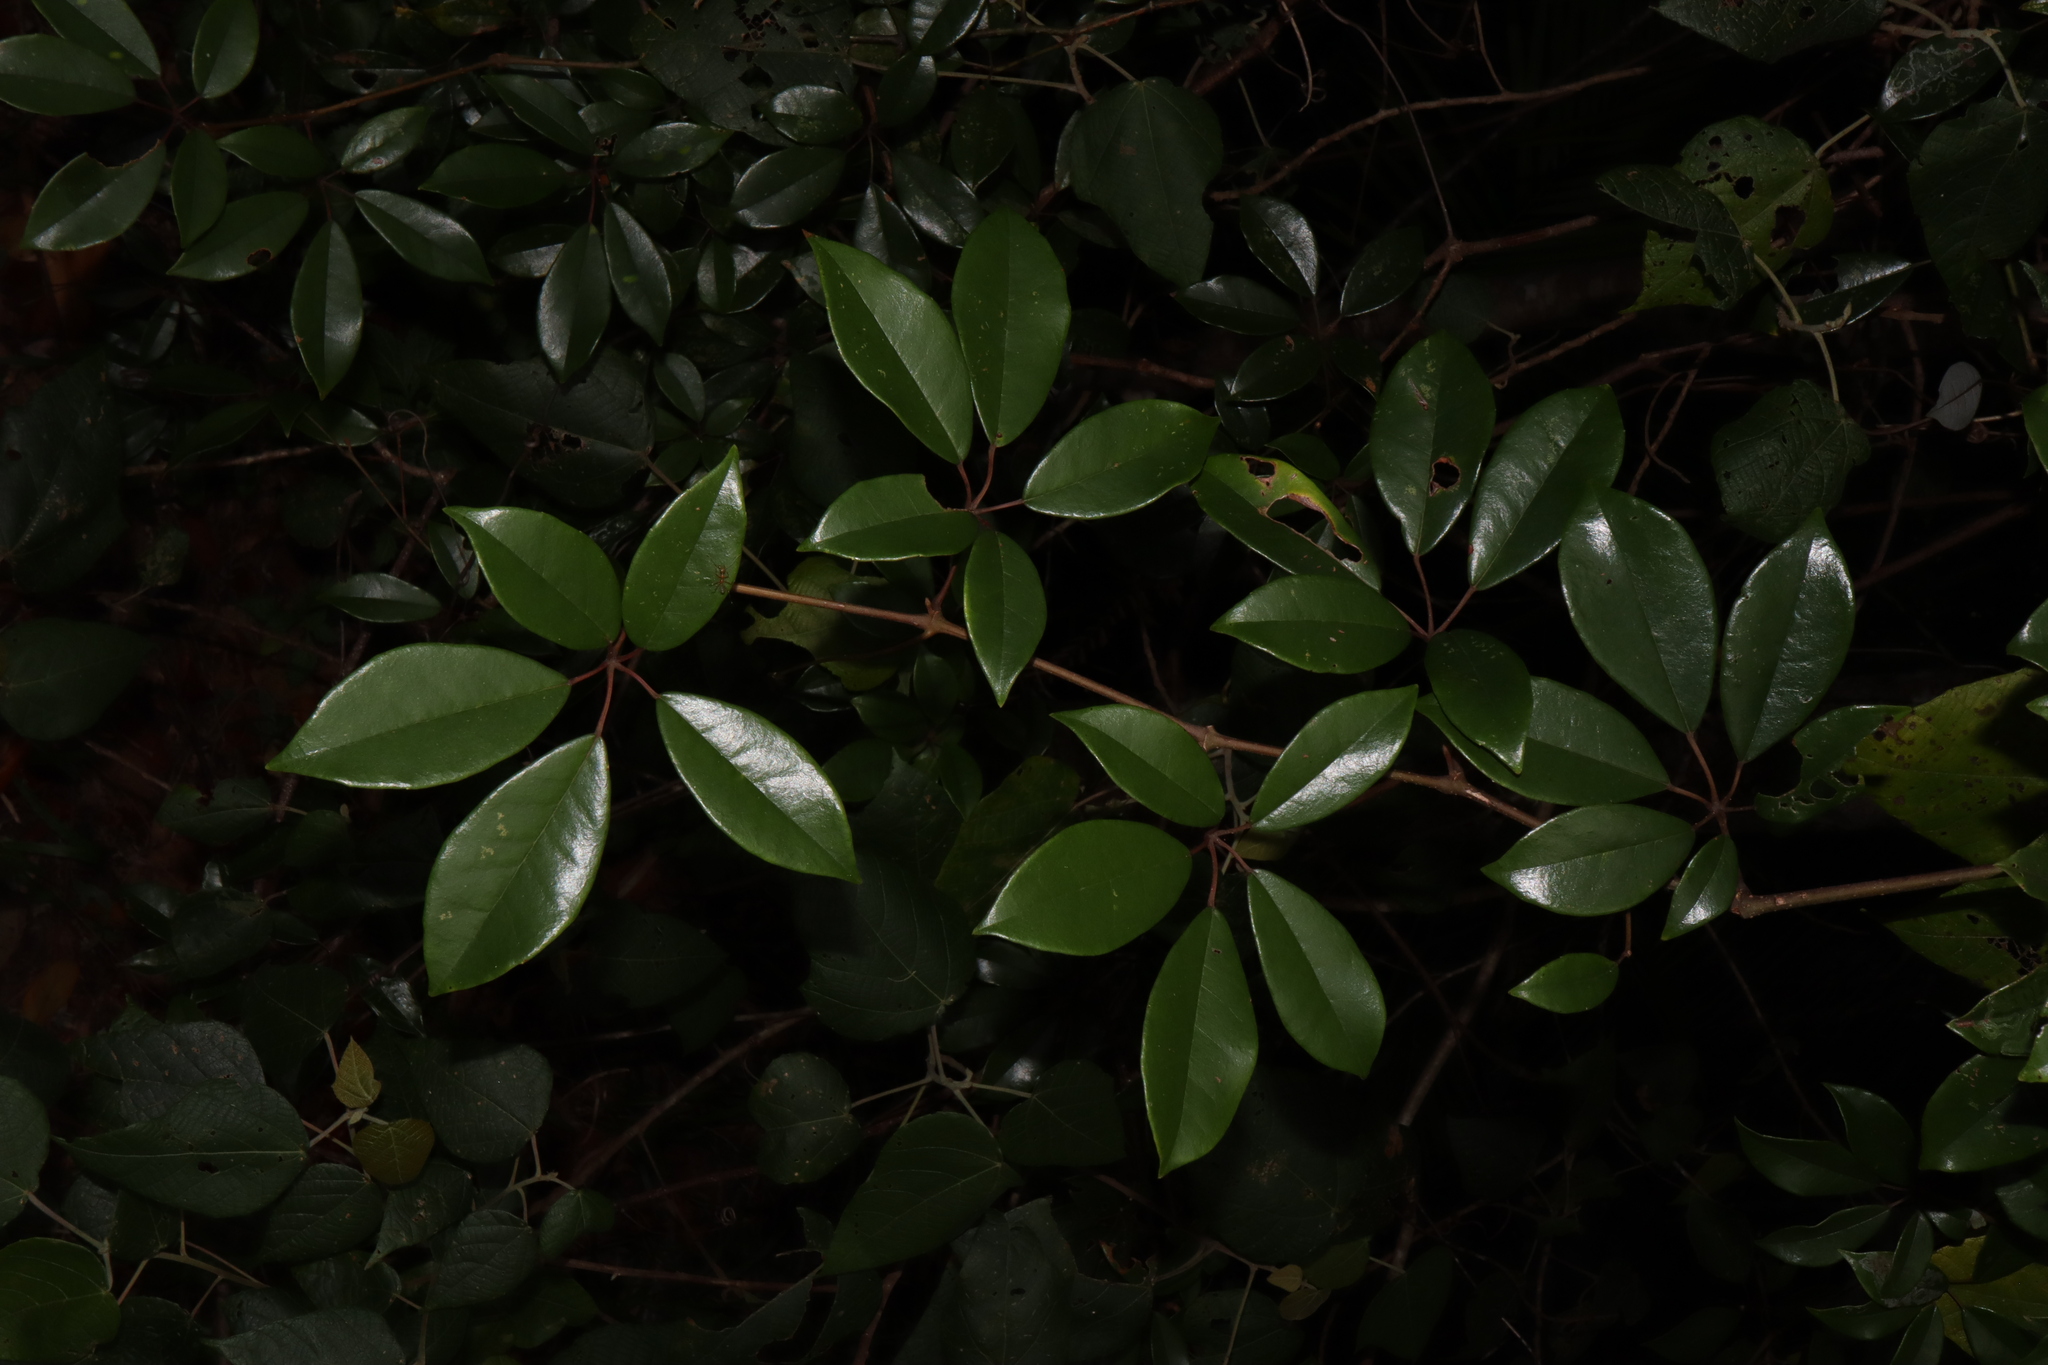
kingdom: Plantae
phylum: Tracheophyta
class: Magnoliopsida
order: Vitales
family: Vitaceae
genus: Nothocissus
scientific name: Nothocissus hypoglauca
